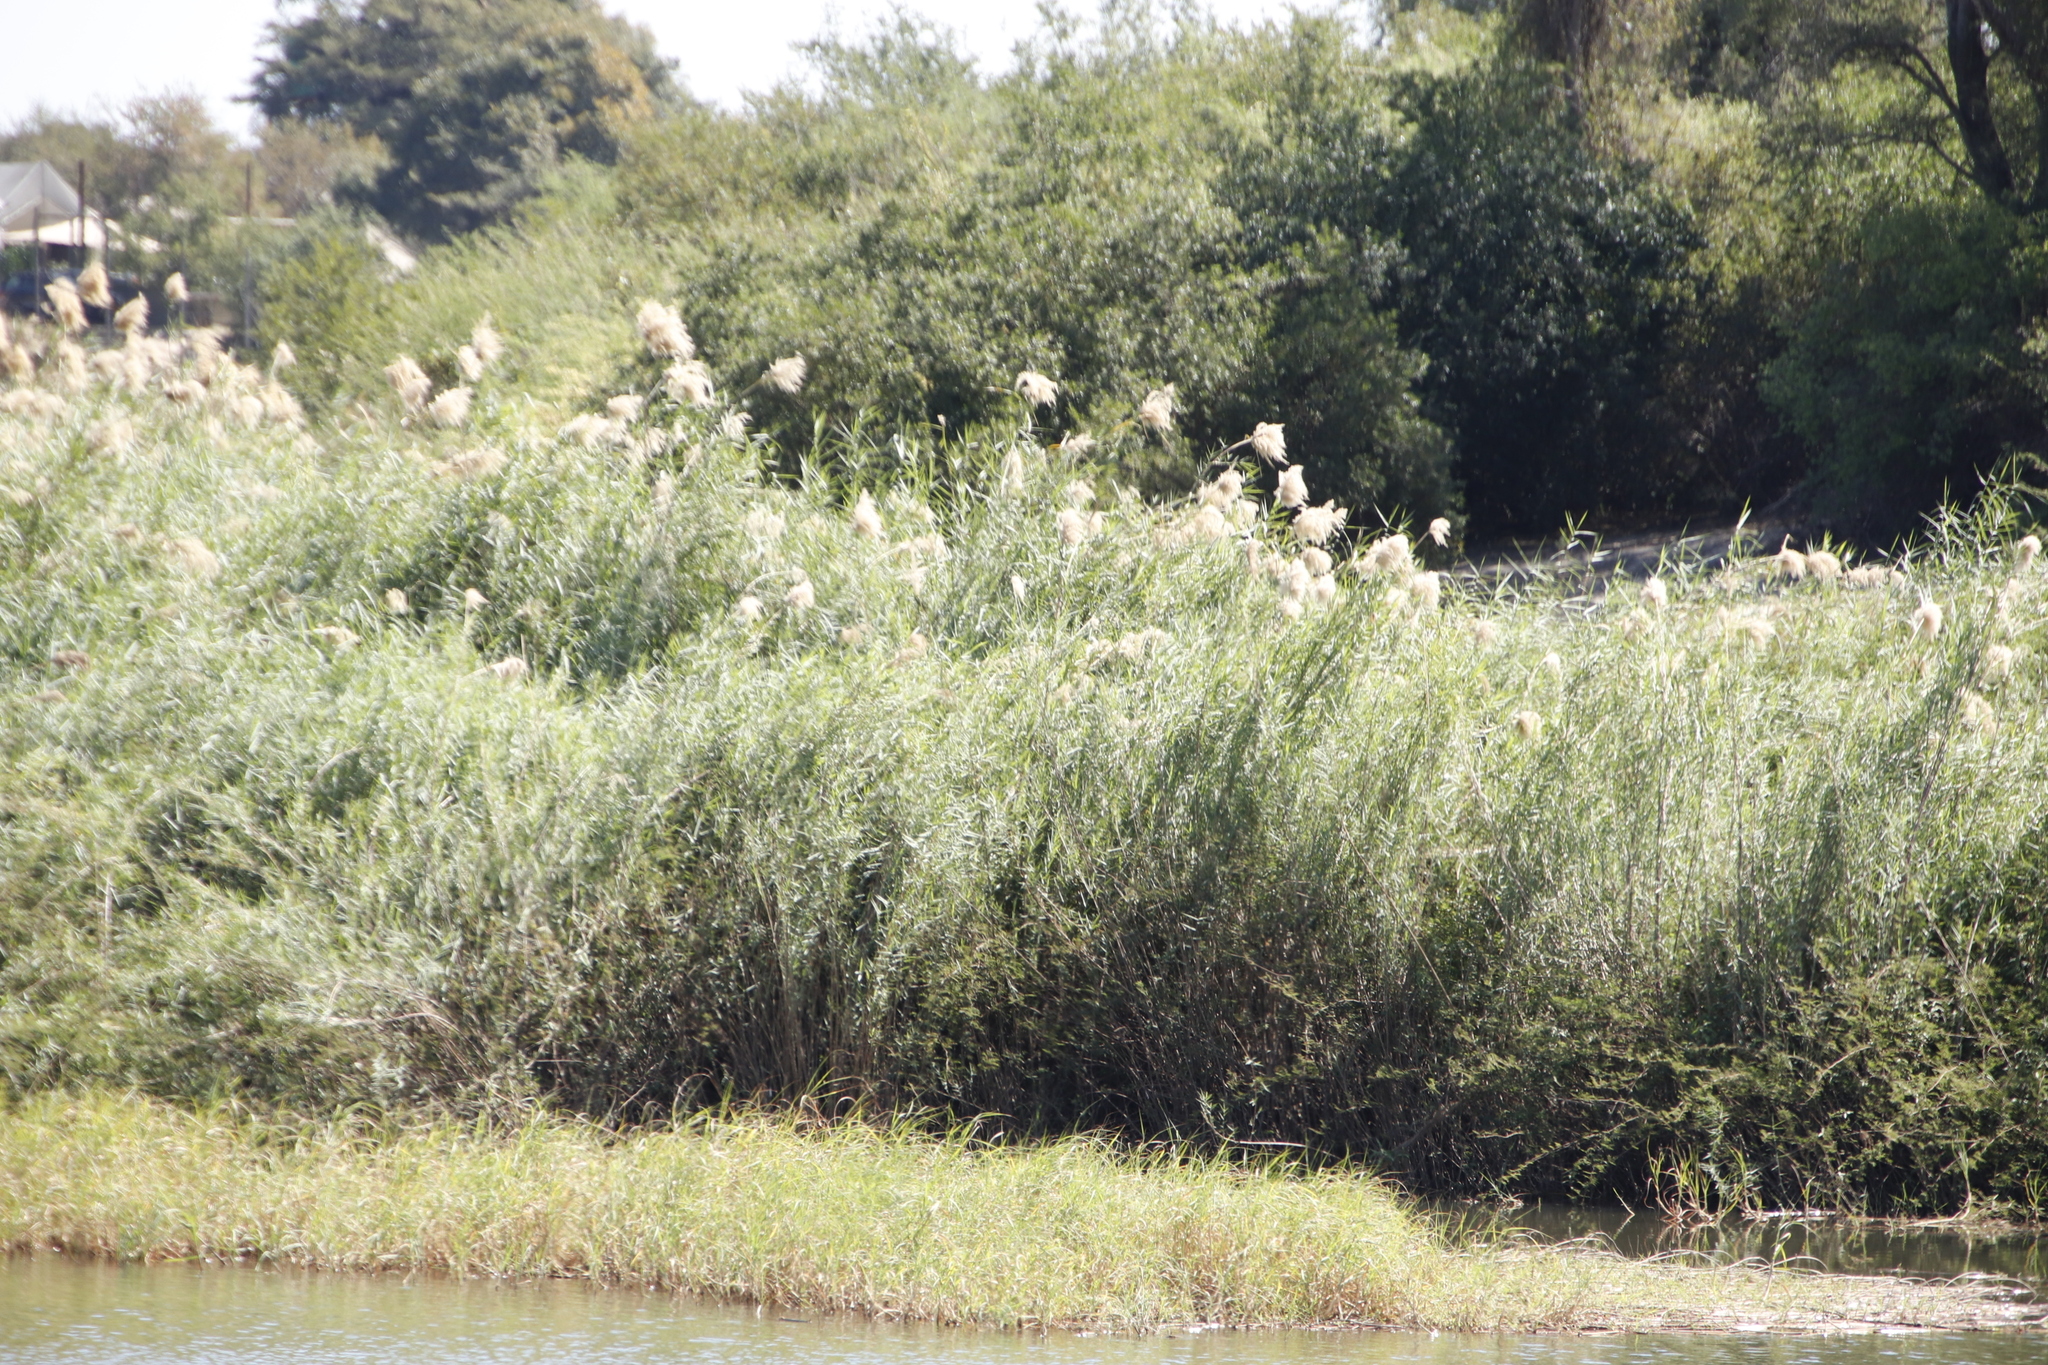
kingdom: Plantae
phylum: Tracheophyta
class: Liliopsida
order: Poales
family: Poaceae
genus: Phragmites
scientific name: Phragmites australis
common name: Common reed
